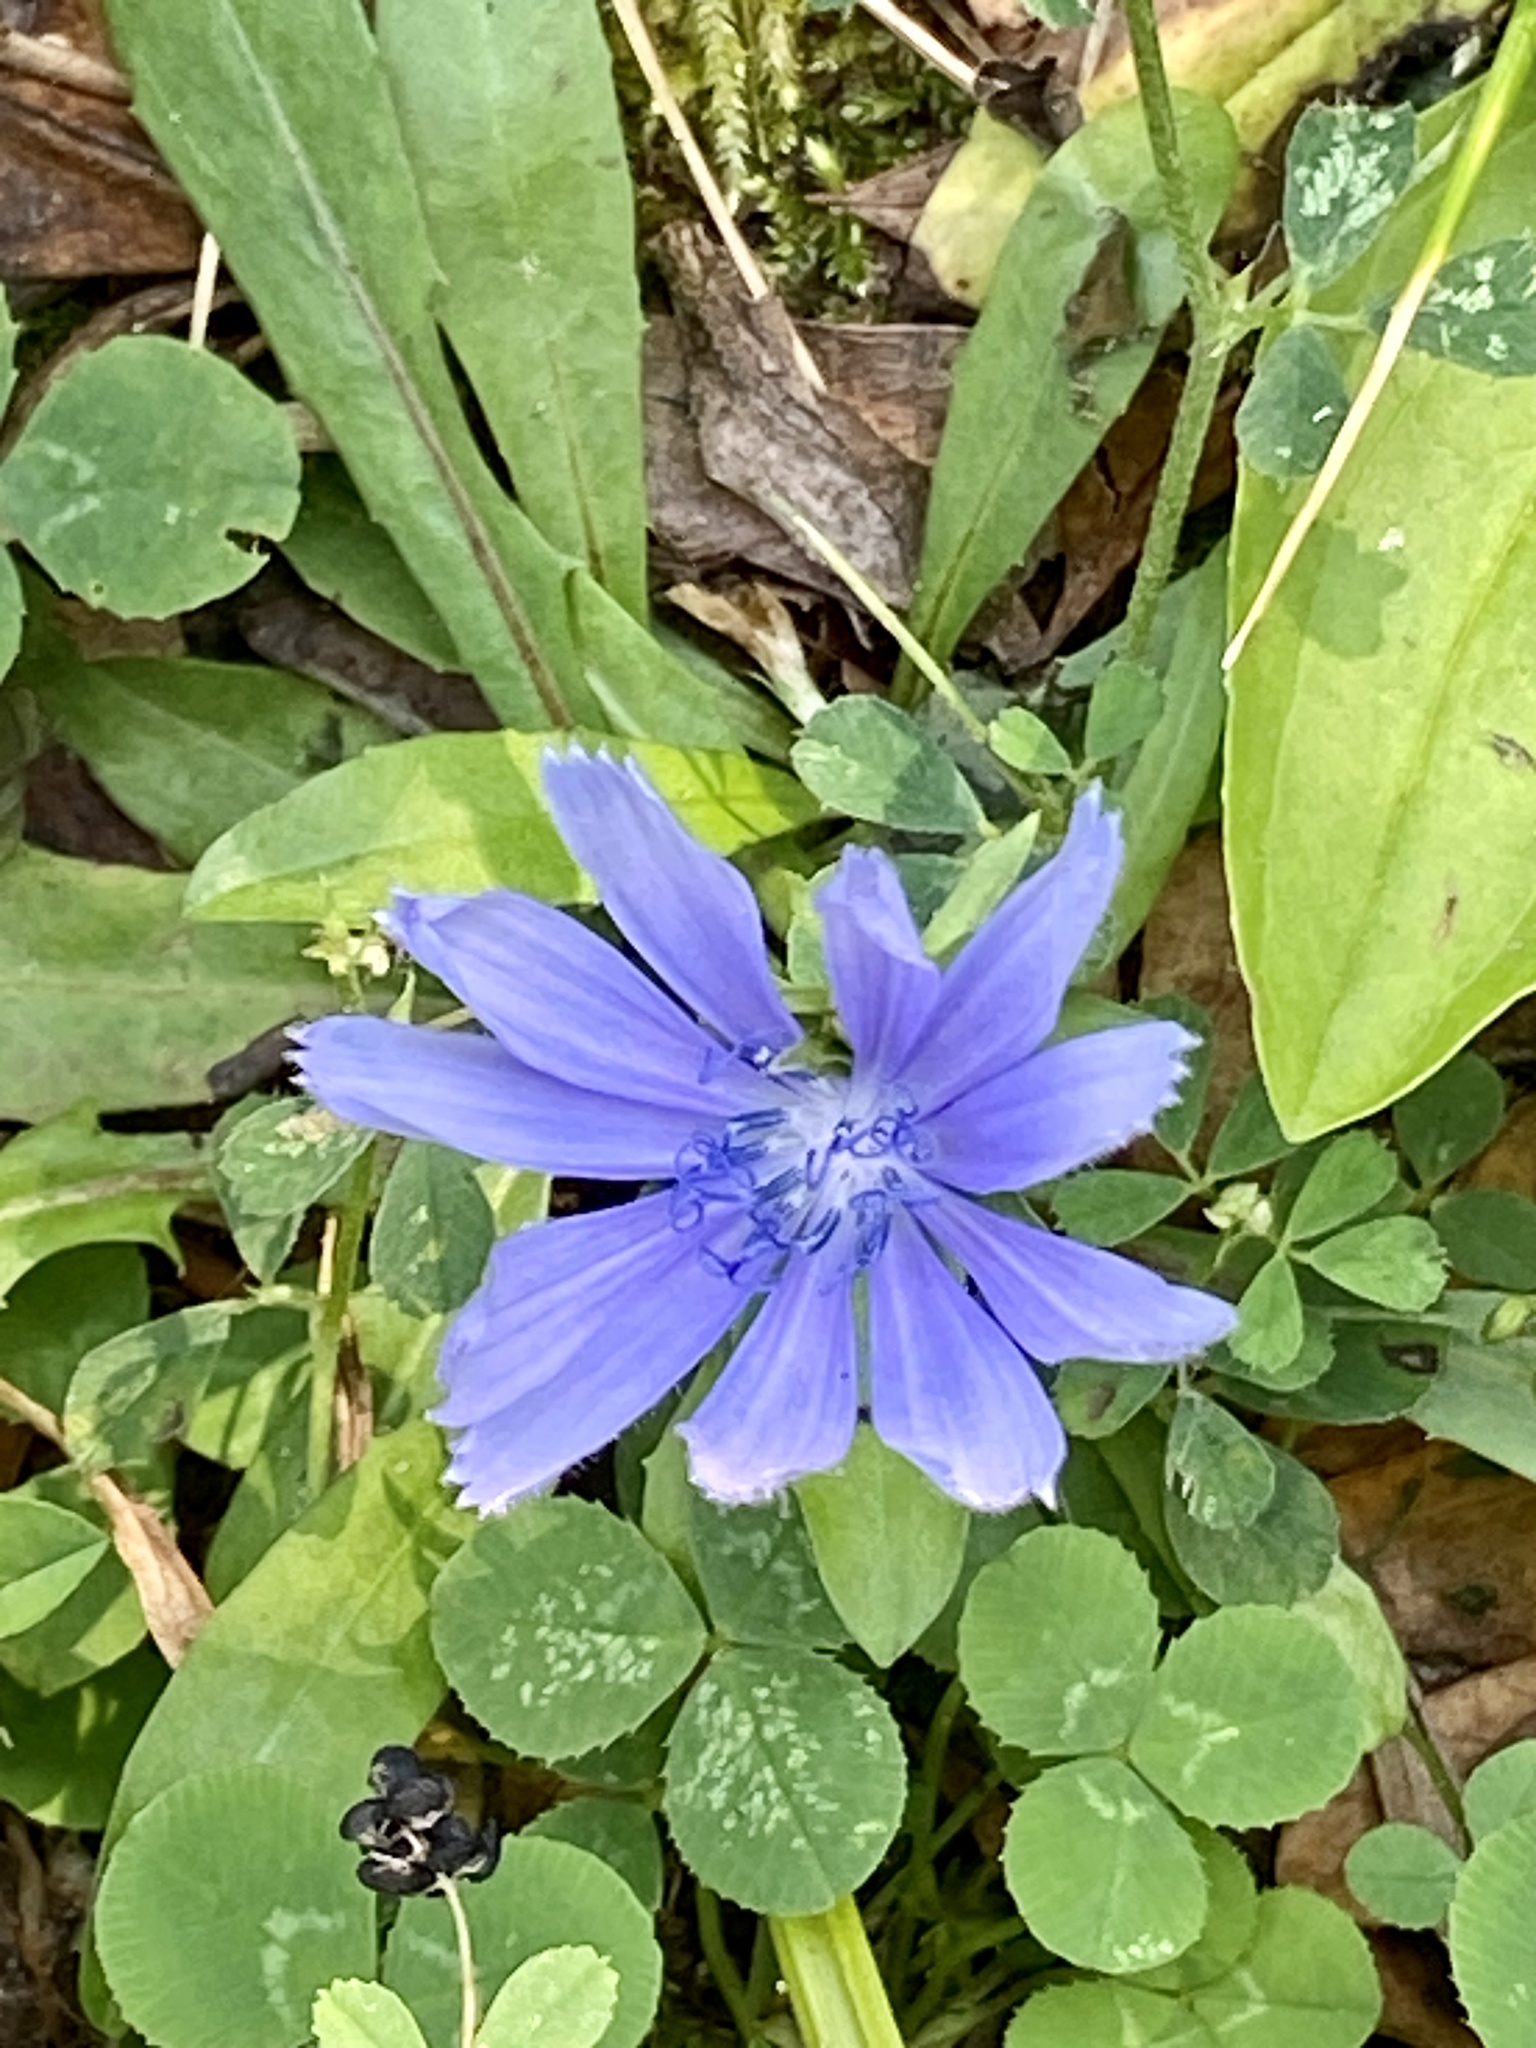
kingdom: Plantae
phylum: Tracheophyta
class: Magnoliopsida
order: Asterales
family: Asteraceae
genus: Cichorium
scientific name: Cichorium intybus
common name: Chicory
